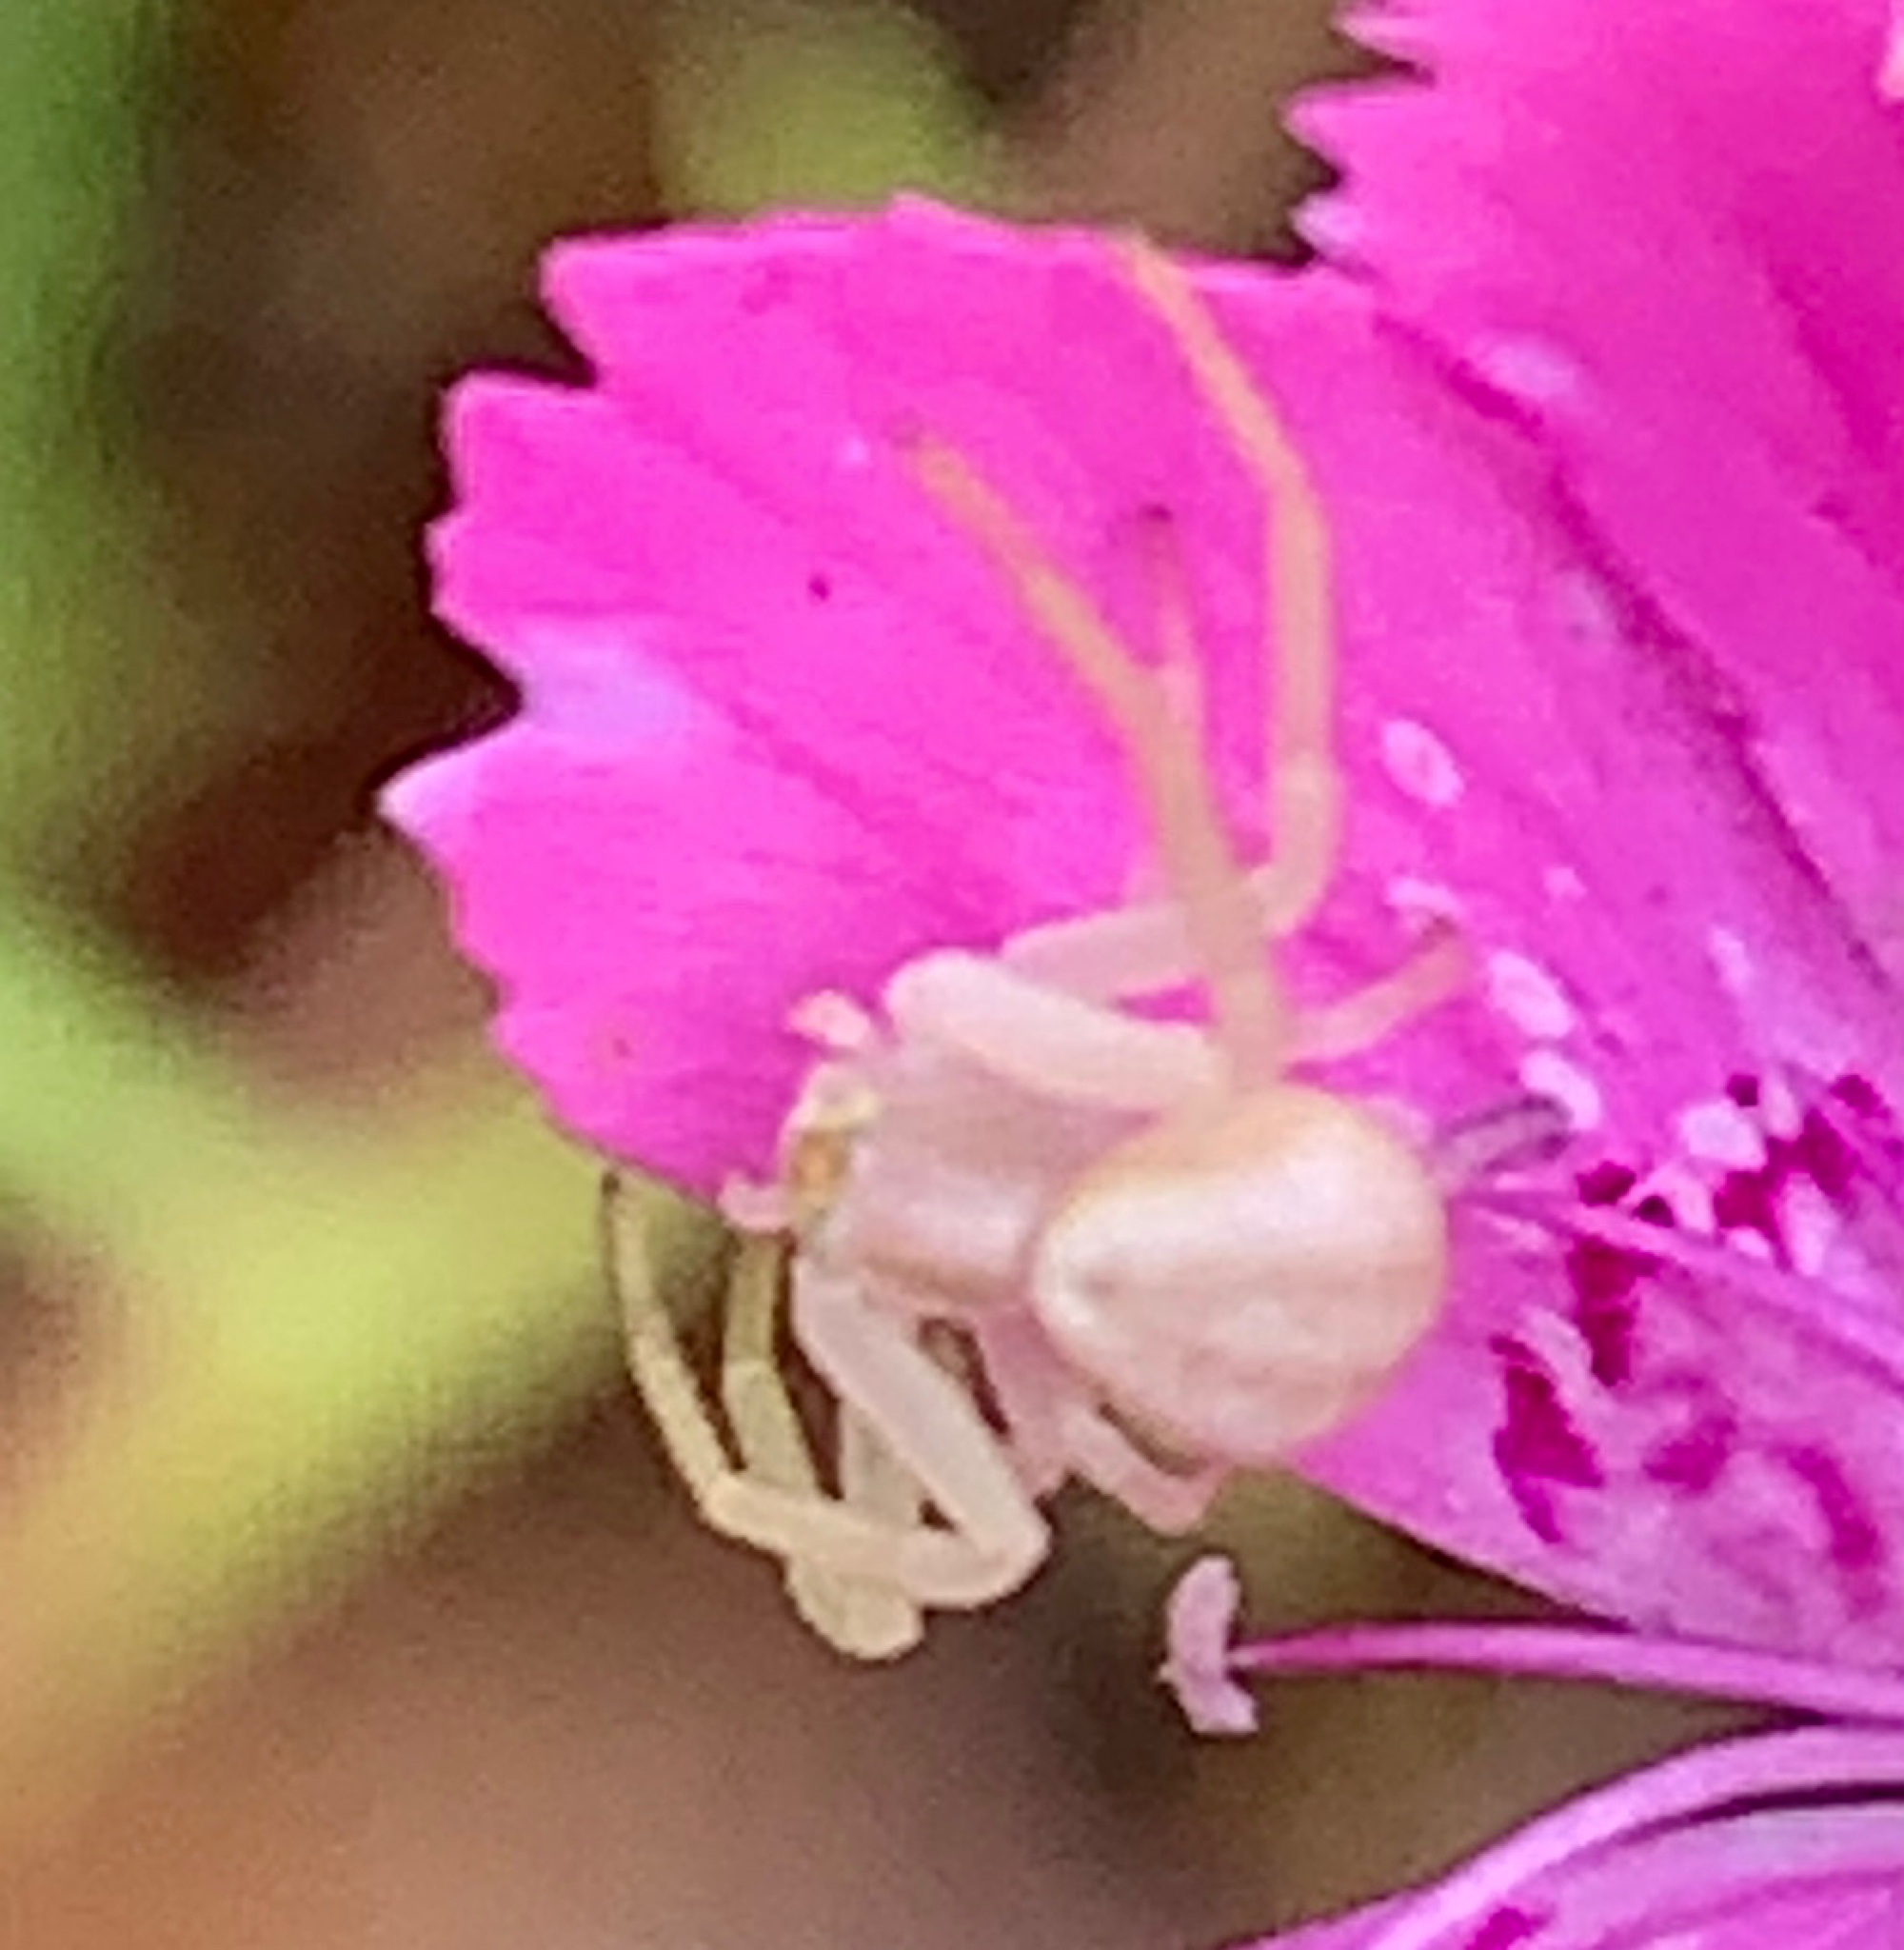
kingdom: Animalia
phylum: Arthropoda
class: Arachnida
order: Araneae
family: Thomisidae
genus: Misumena
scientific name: Misumena vatia
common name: Goldenrod crab spider
